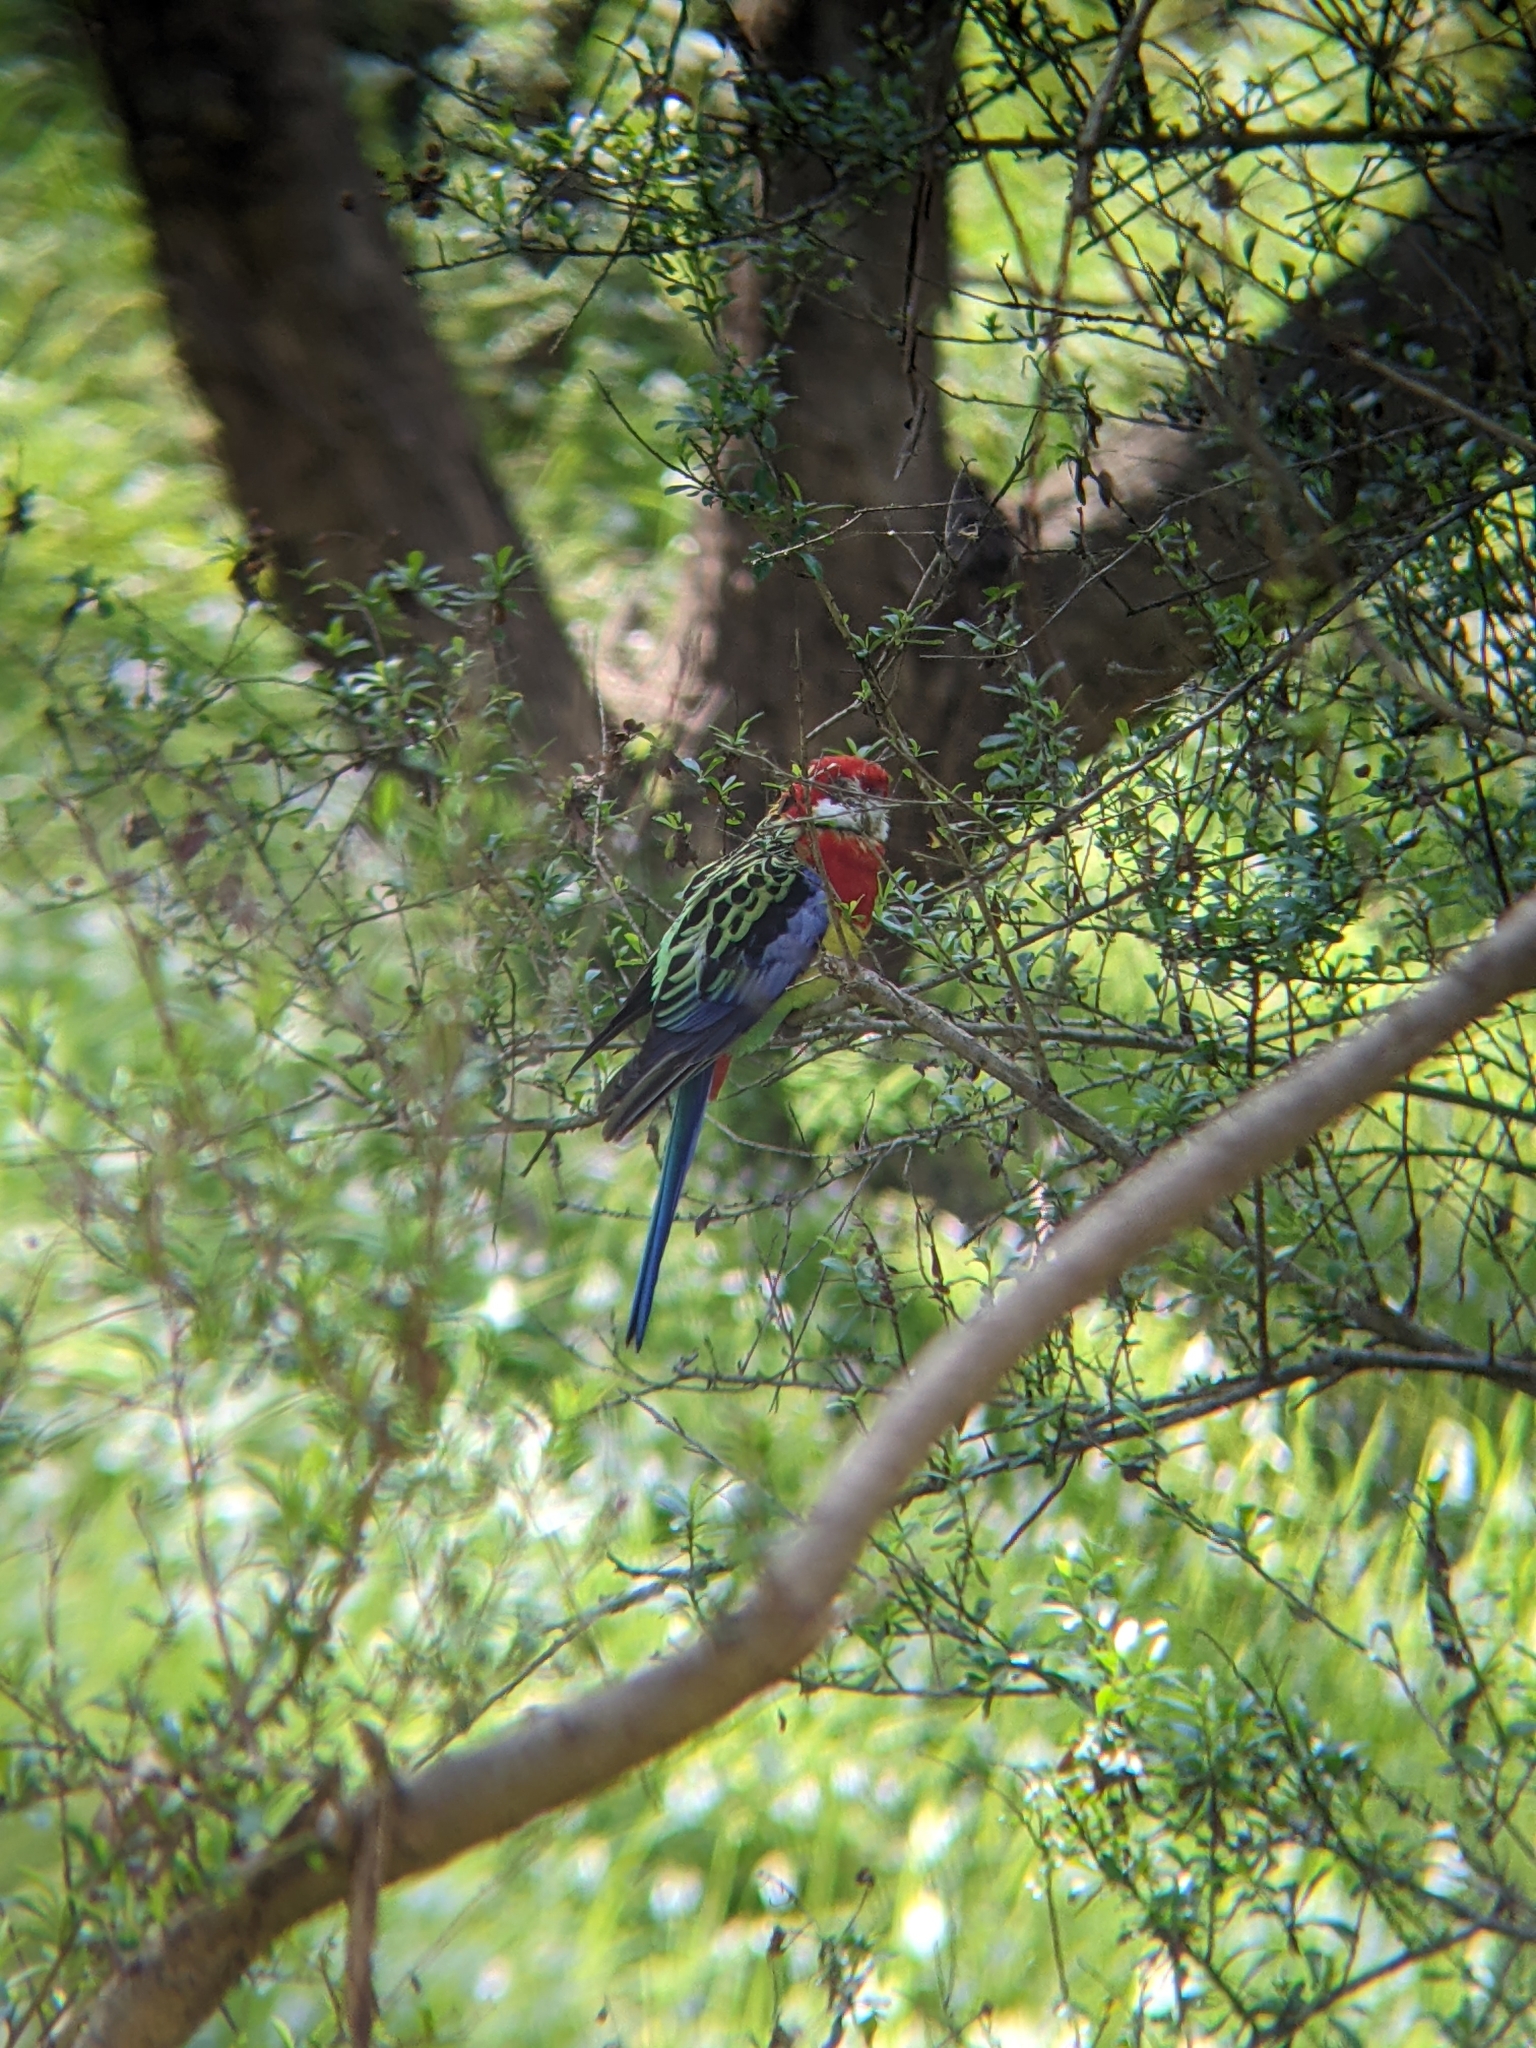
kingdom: Animalia
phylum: Chordata
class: Aves
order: Psittaciformes
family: Psittacidae
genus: Platycercus
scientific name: Platycercus eximius
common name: Eastern rosella
